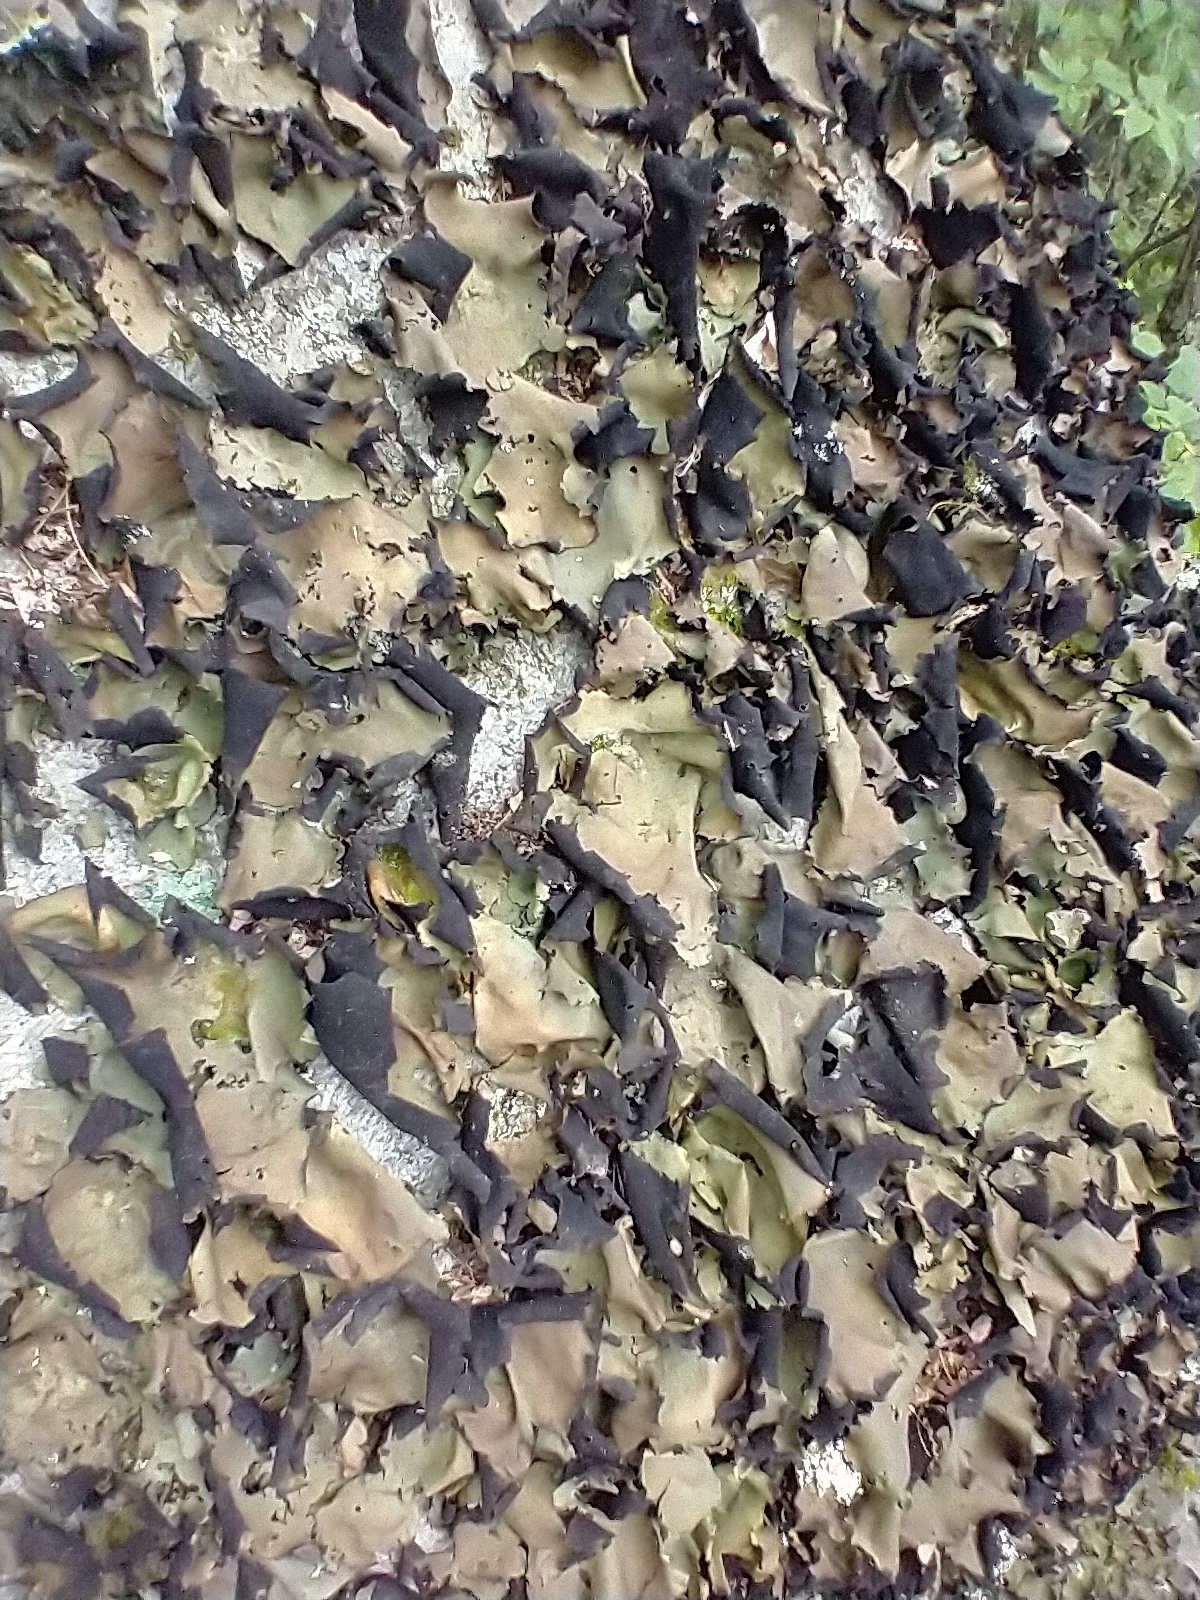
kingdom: Fungi
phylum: Ascomycota
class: Lecanoromycetes
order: Umbilicariales
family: Umbilicariaceae
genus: Umbilicaria
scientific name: Umbilicaria mammulata
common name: Smooth rock tripe
